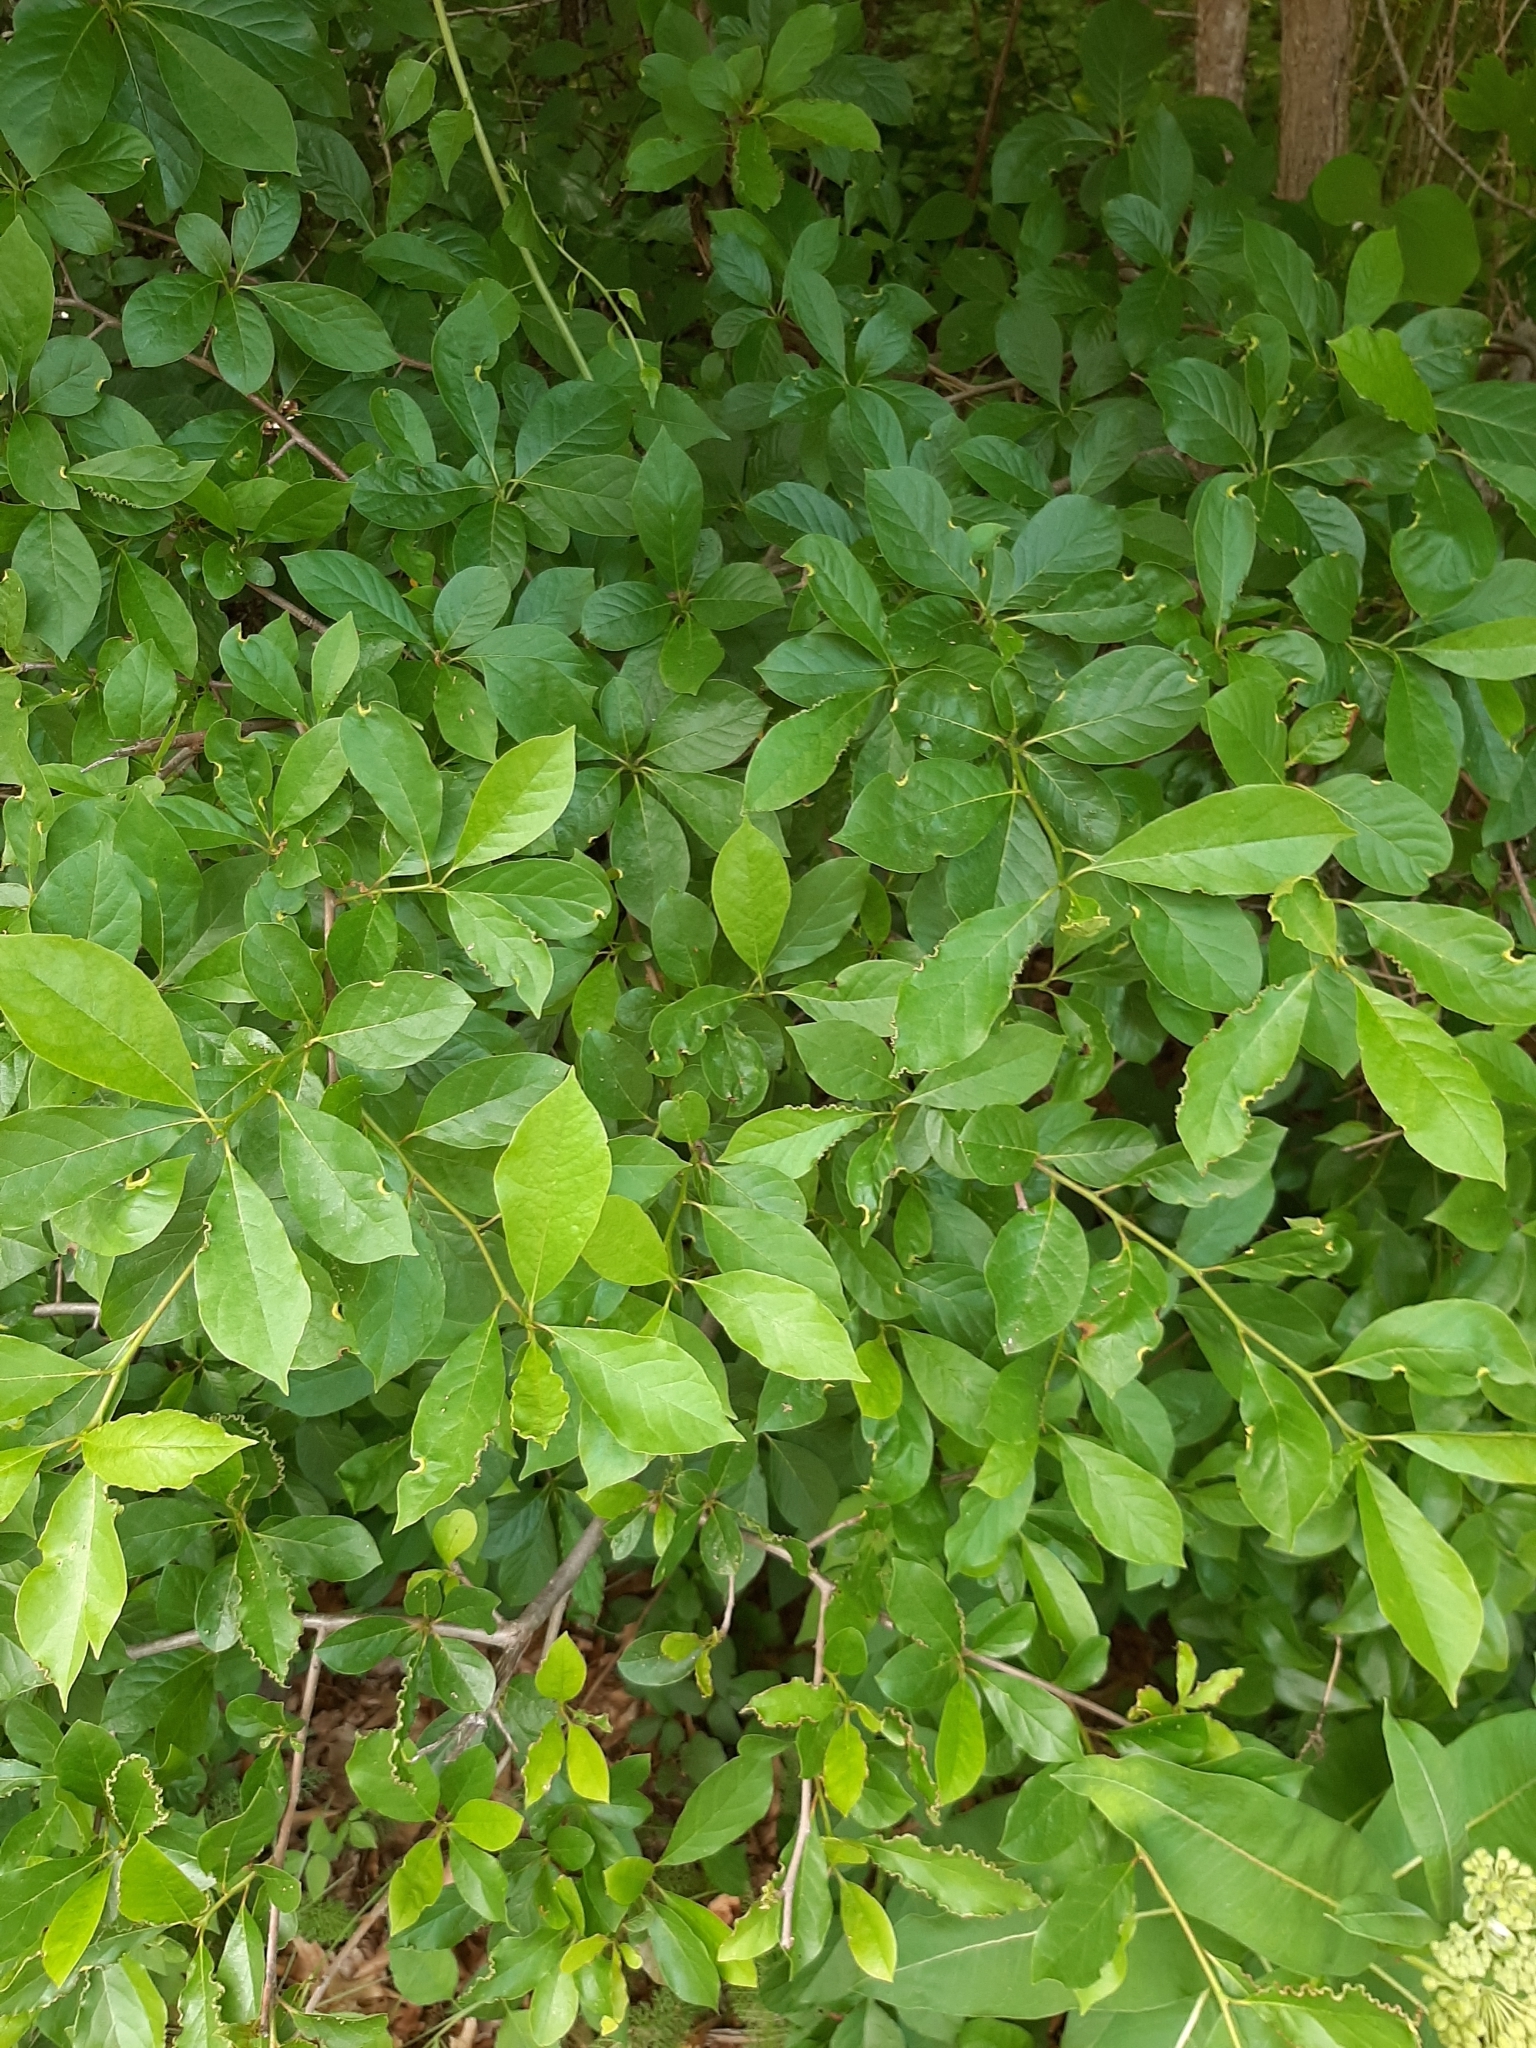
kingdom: Animalia
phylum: Arthropoda
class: Insecta
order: Hemiptera
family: Phylloxeridae
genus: Phylloxerina
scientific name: Phylloxerina nyssae
